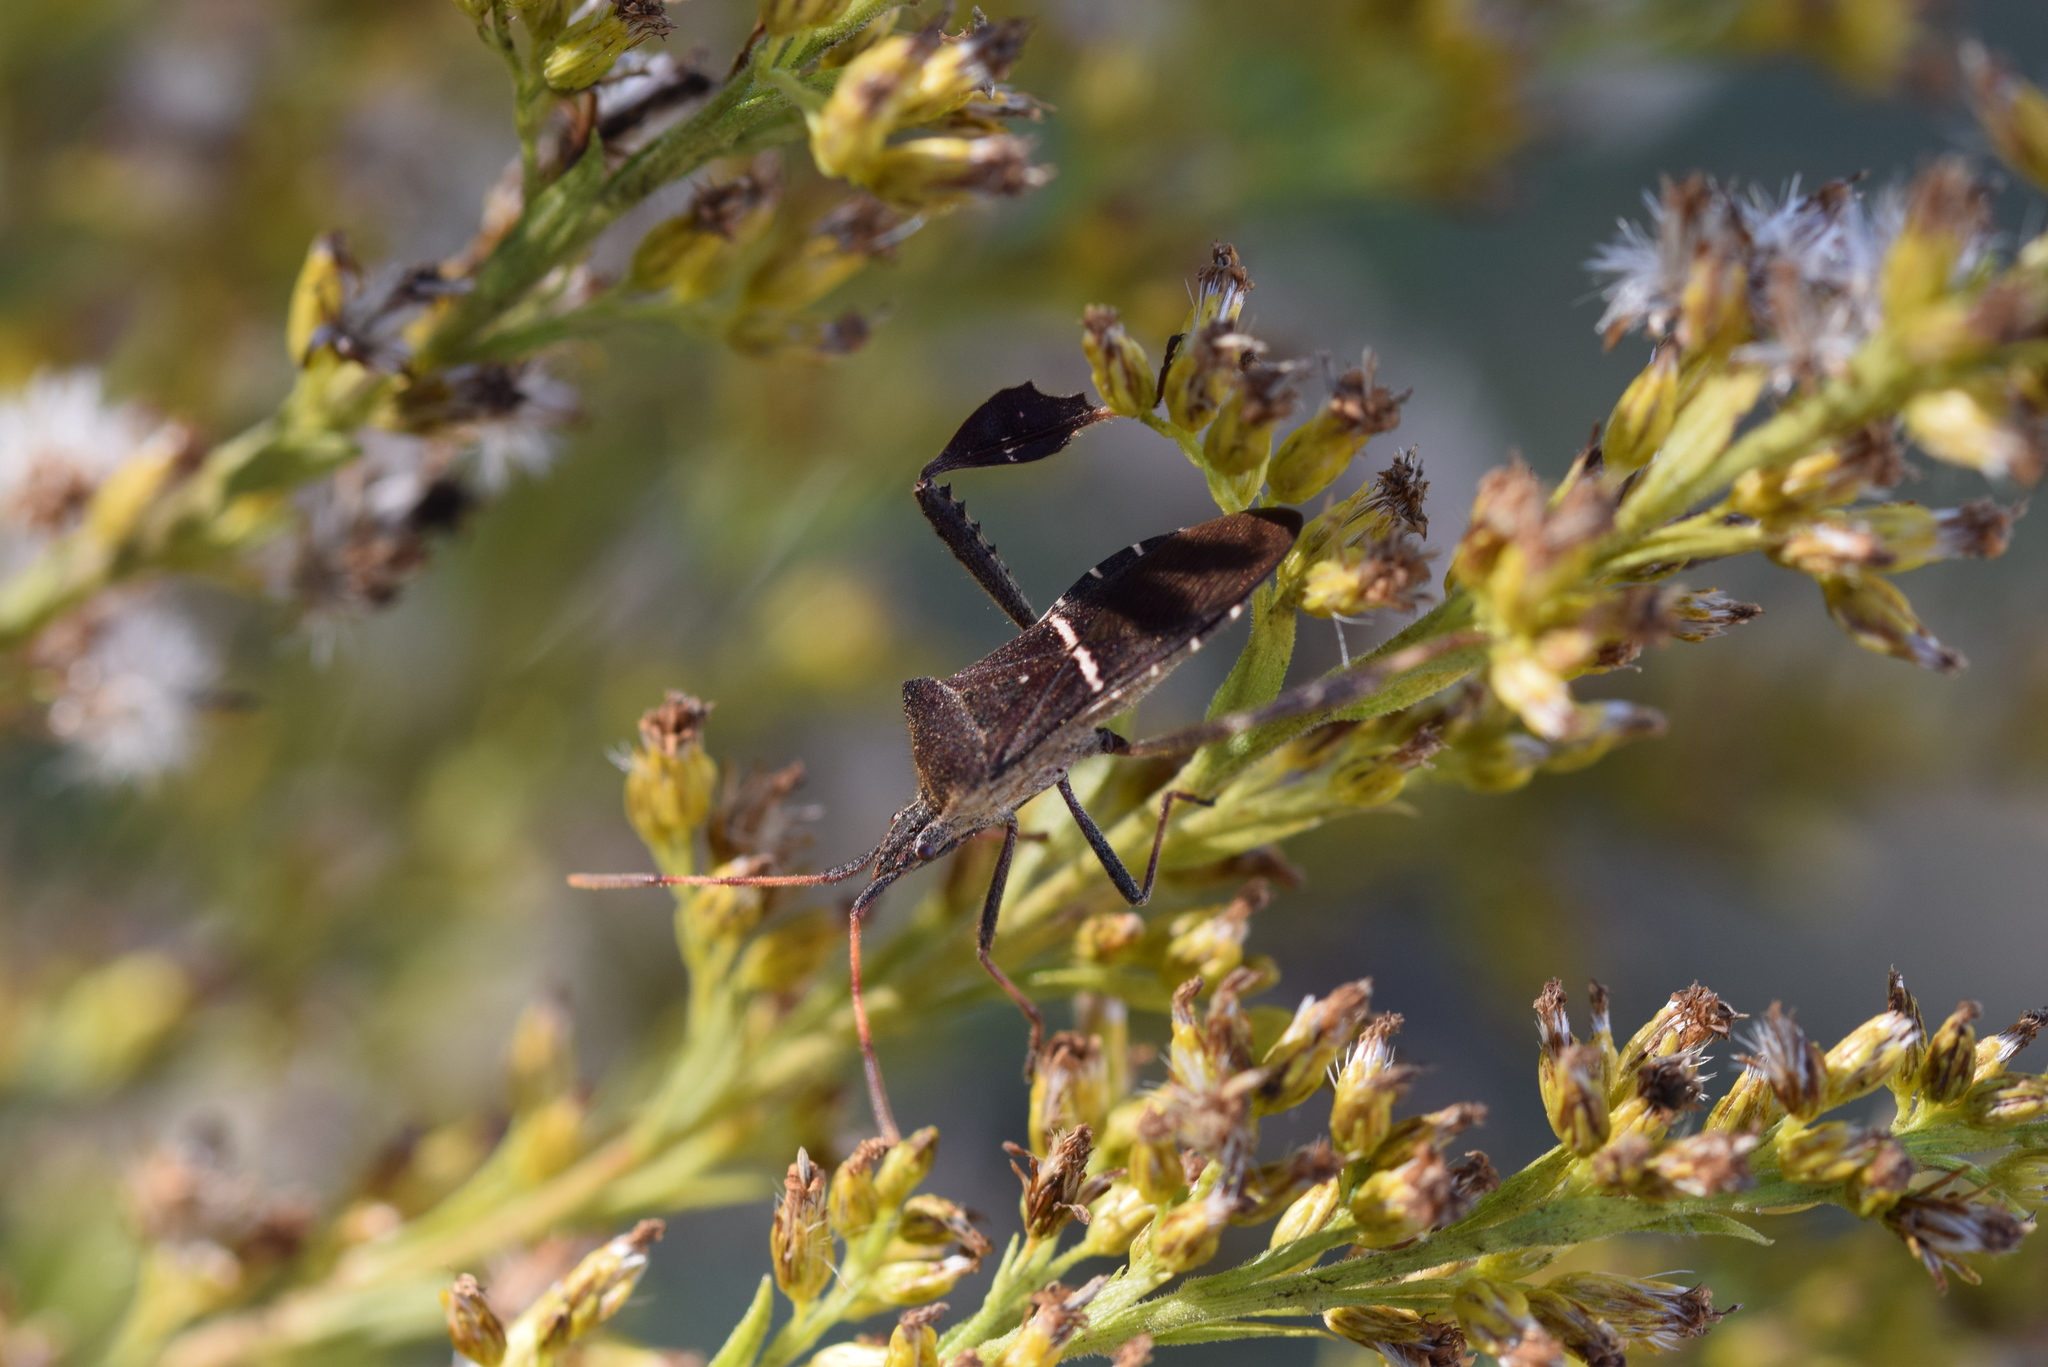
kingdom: Animalia
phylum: Arthropoda
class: Insecta
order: Hemiptera
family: Coreidae
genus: Leptoglossus
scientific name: Leptoglossus phyllopus
